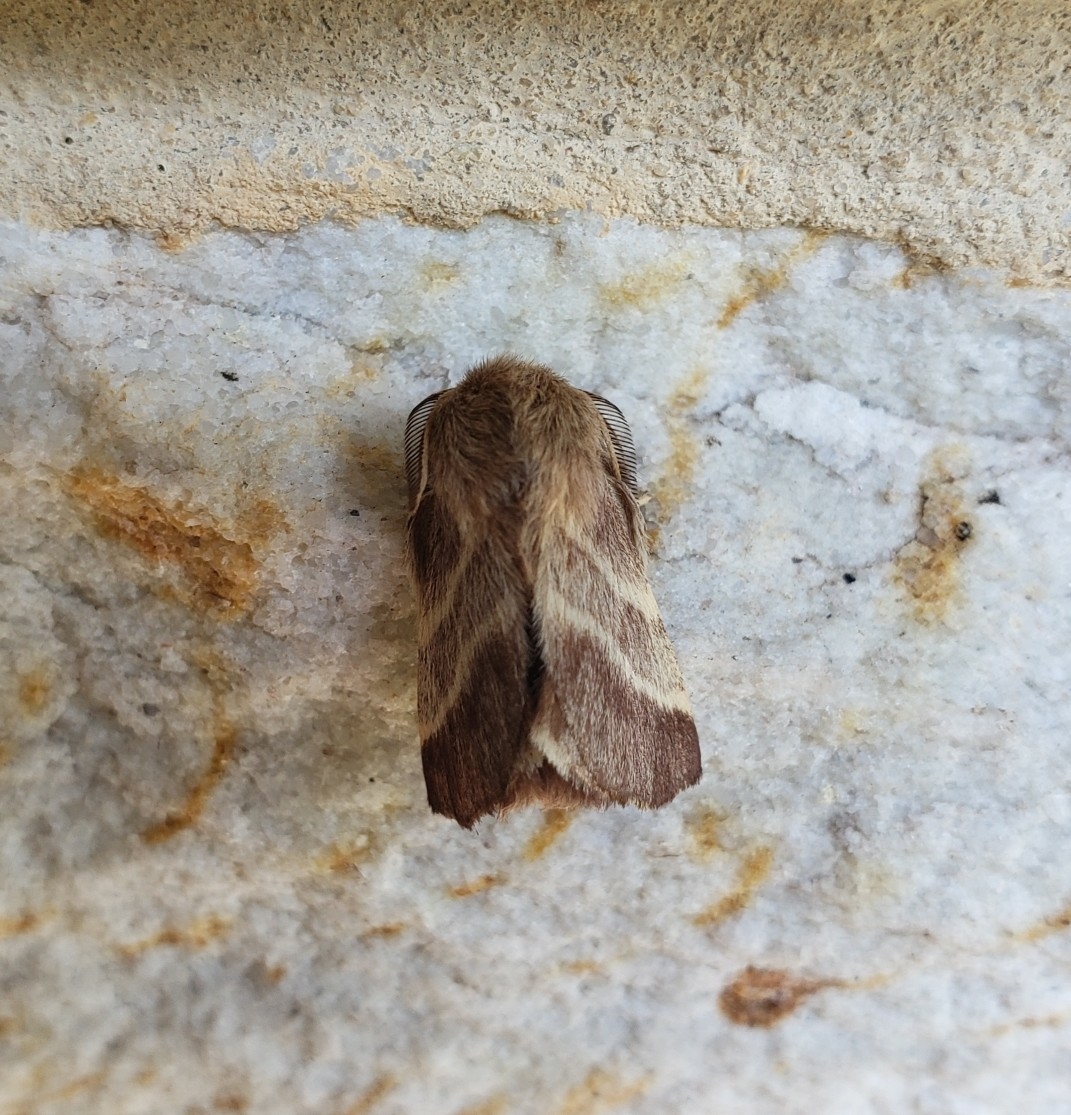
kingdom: Animalia
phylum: Arthropoda
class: Insecta
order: Lepidoptera
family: Lasiocampidae
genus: Malacosoma
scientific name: Malacosoma americana
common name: Eastern tent caterpillar moth
